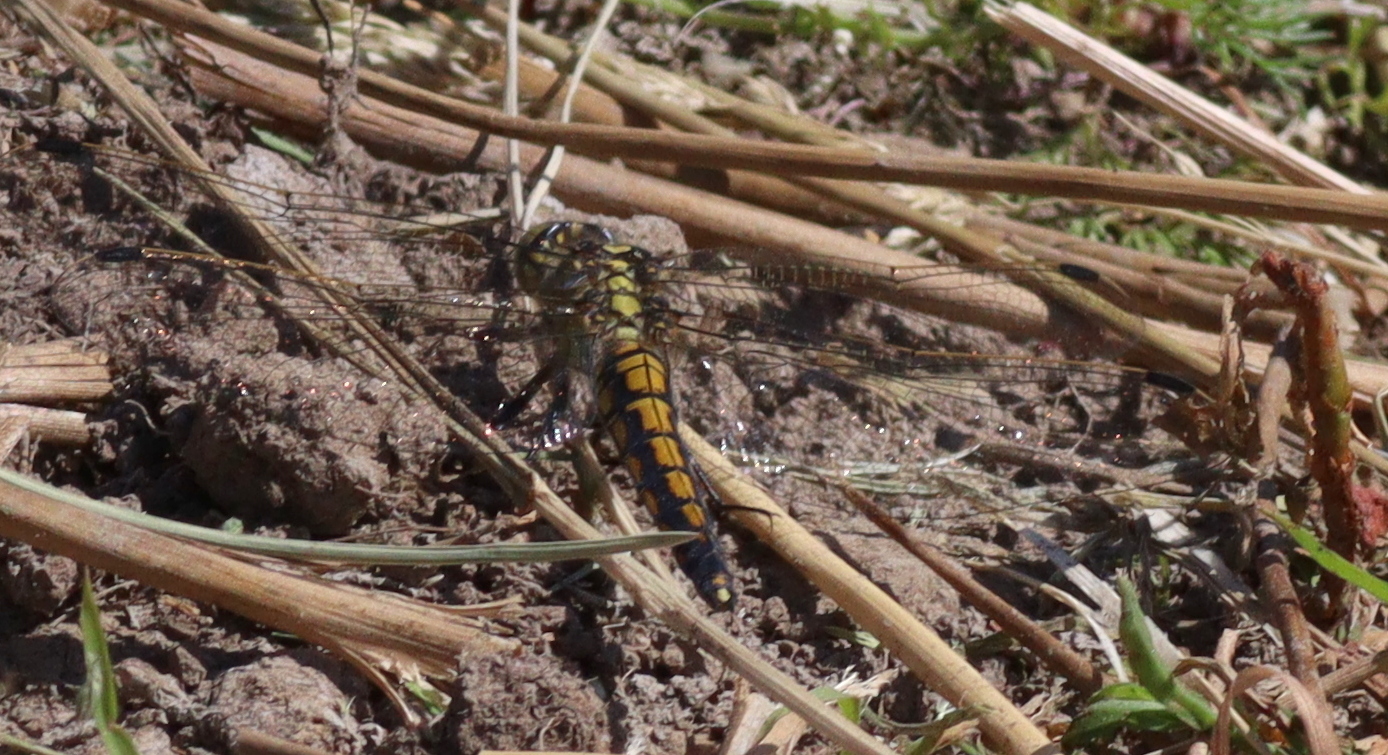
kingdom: Animalia
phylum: Arthropoda
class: Insecta
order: Odonata
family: Libellulidae
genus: Orthetrum
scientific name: Orthetrum cancellatum
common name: Black-tailed skimmer
